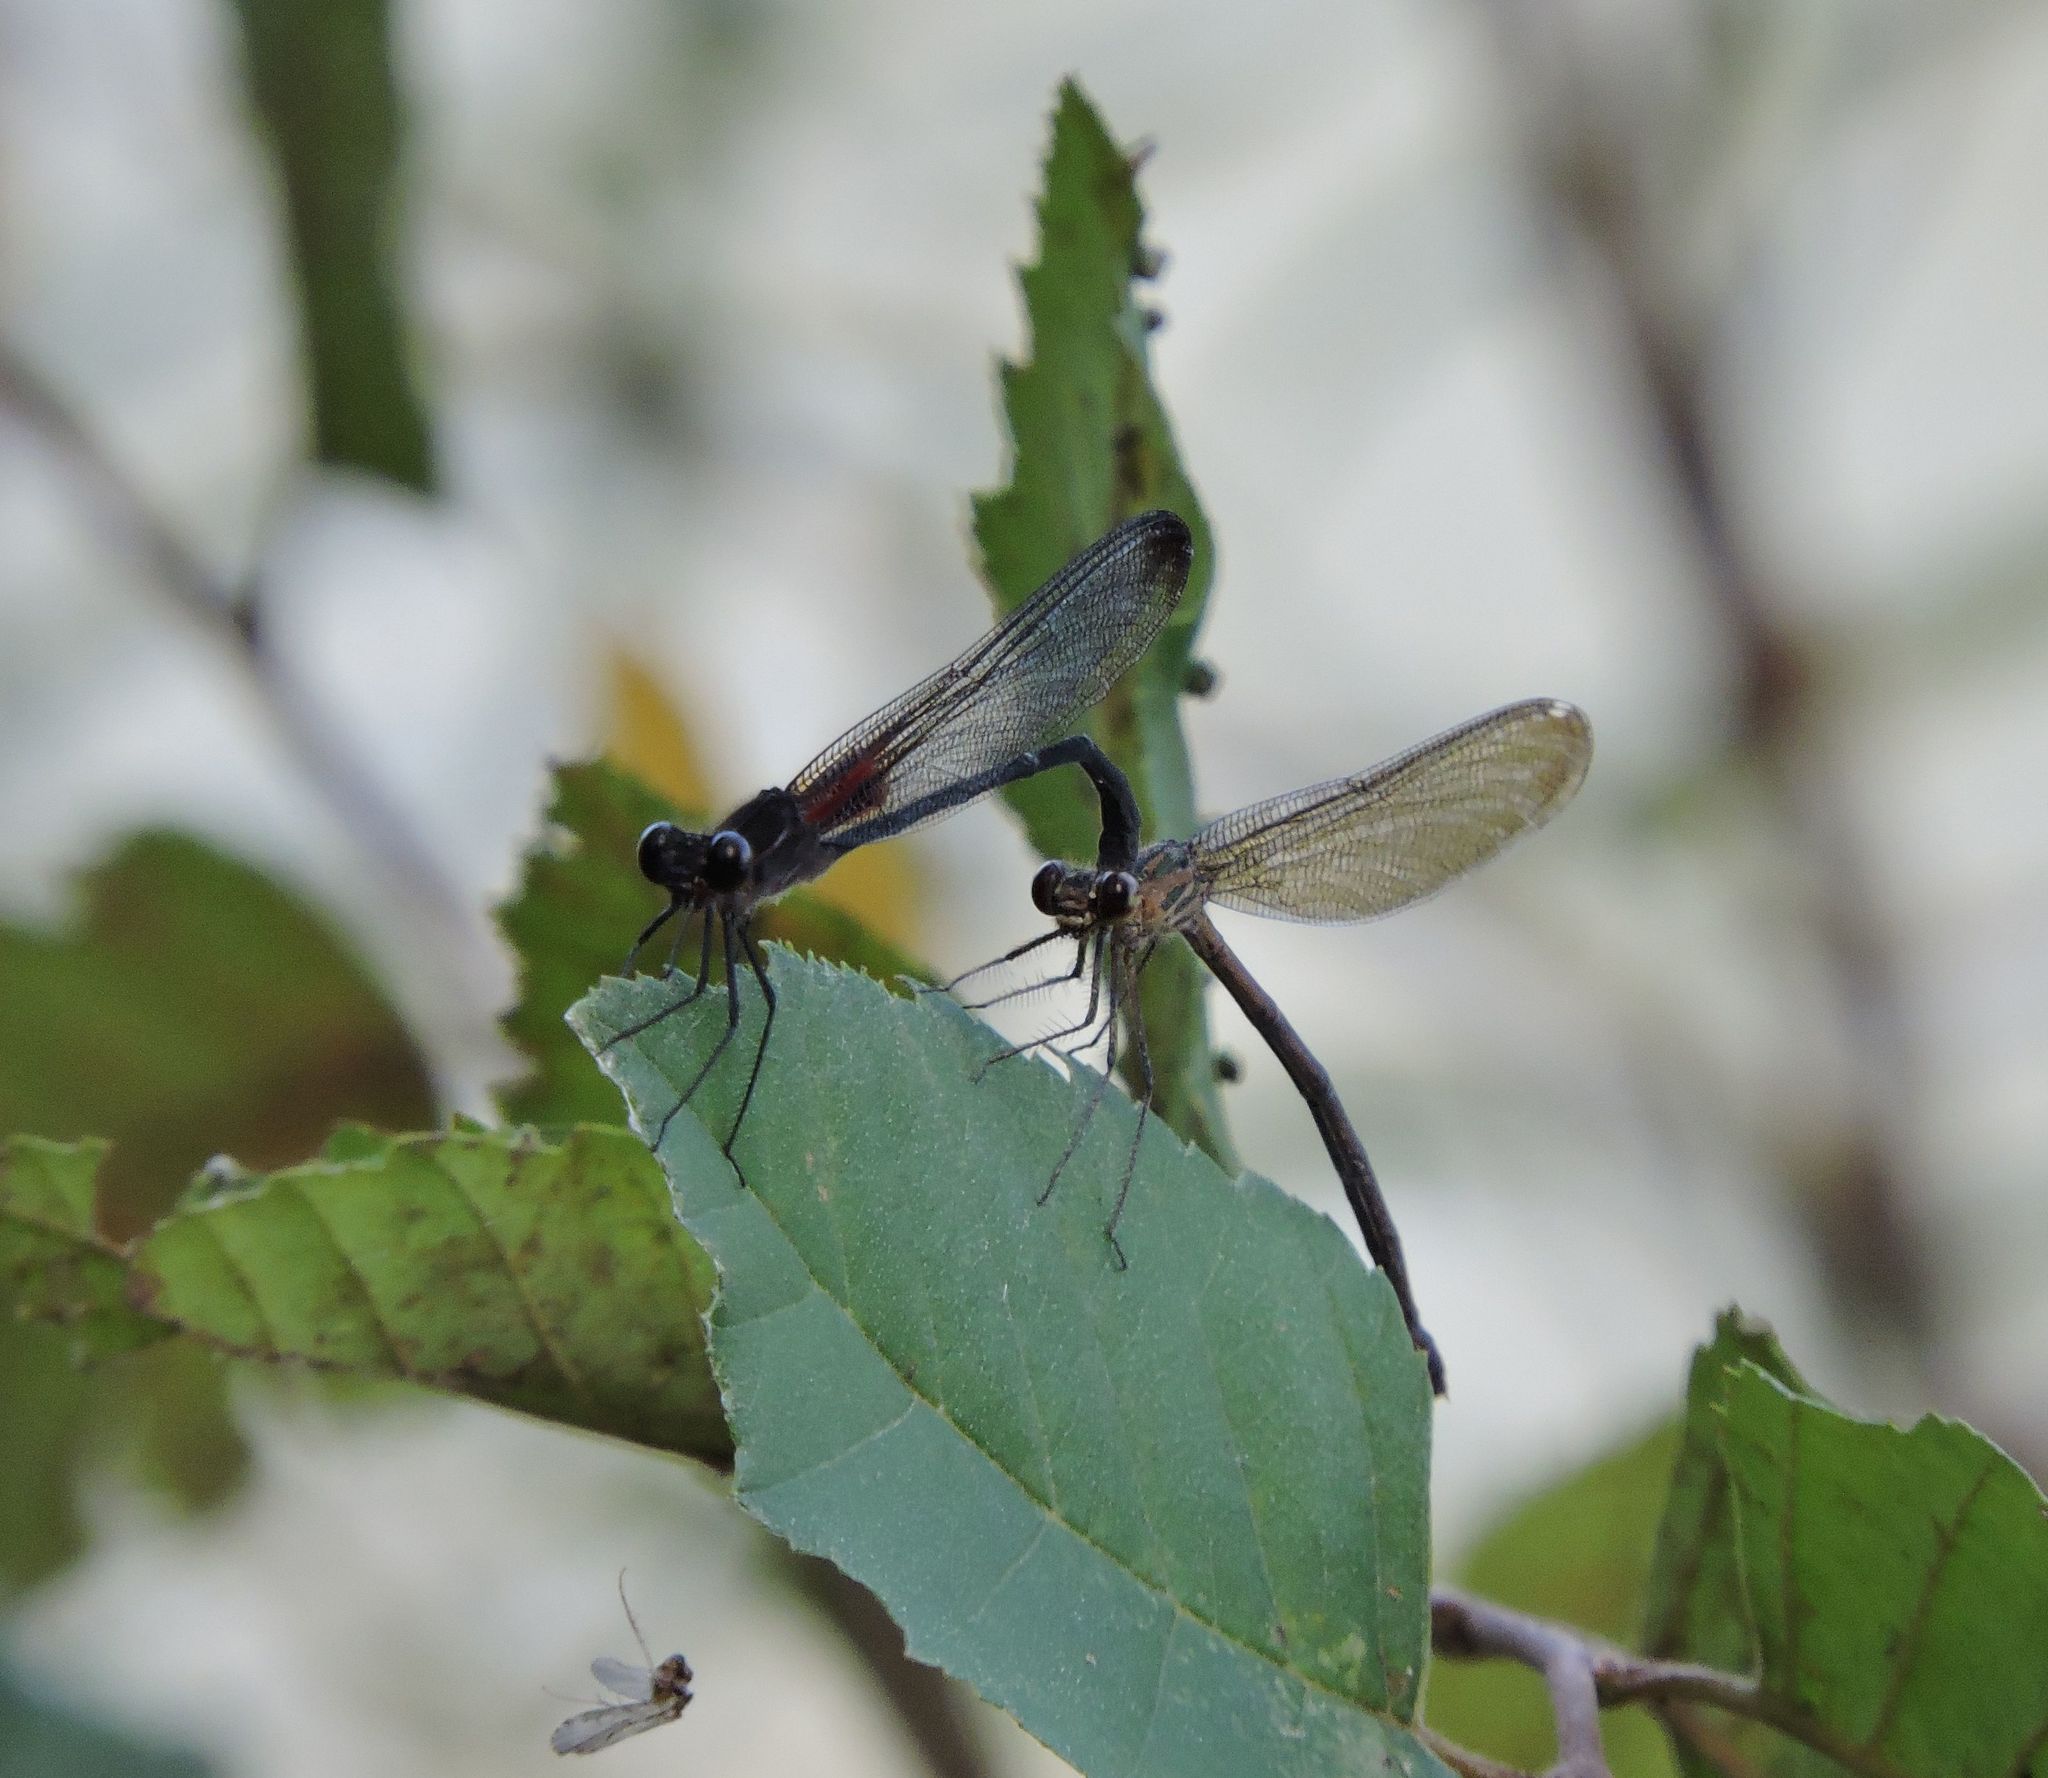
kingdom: Animalia
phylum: Arthropoda
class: Insecta
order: Odonata
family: Calopterygidae
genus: Hetaerina
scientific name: Hetaerina titia
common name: Smoky rubyspot
